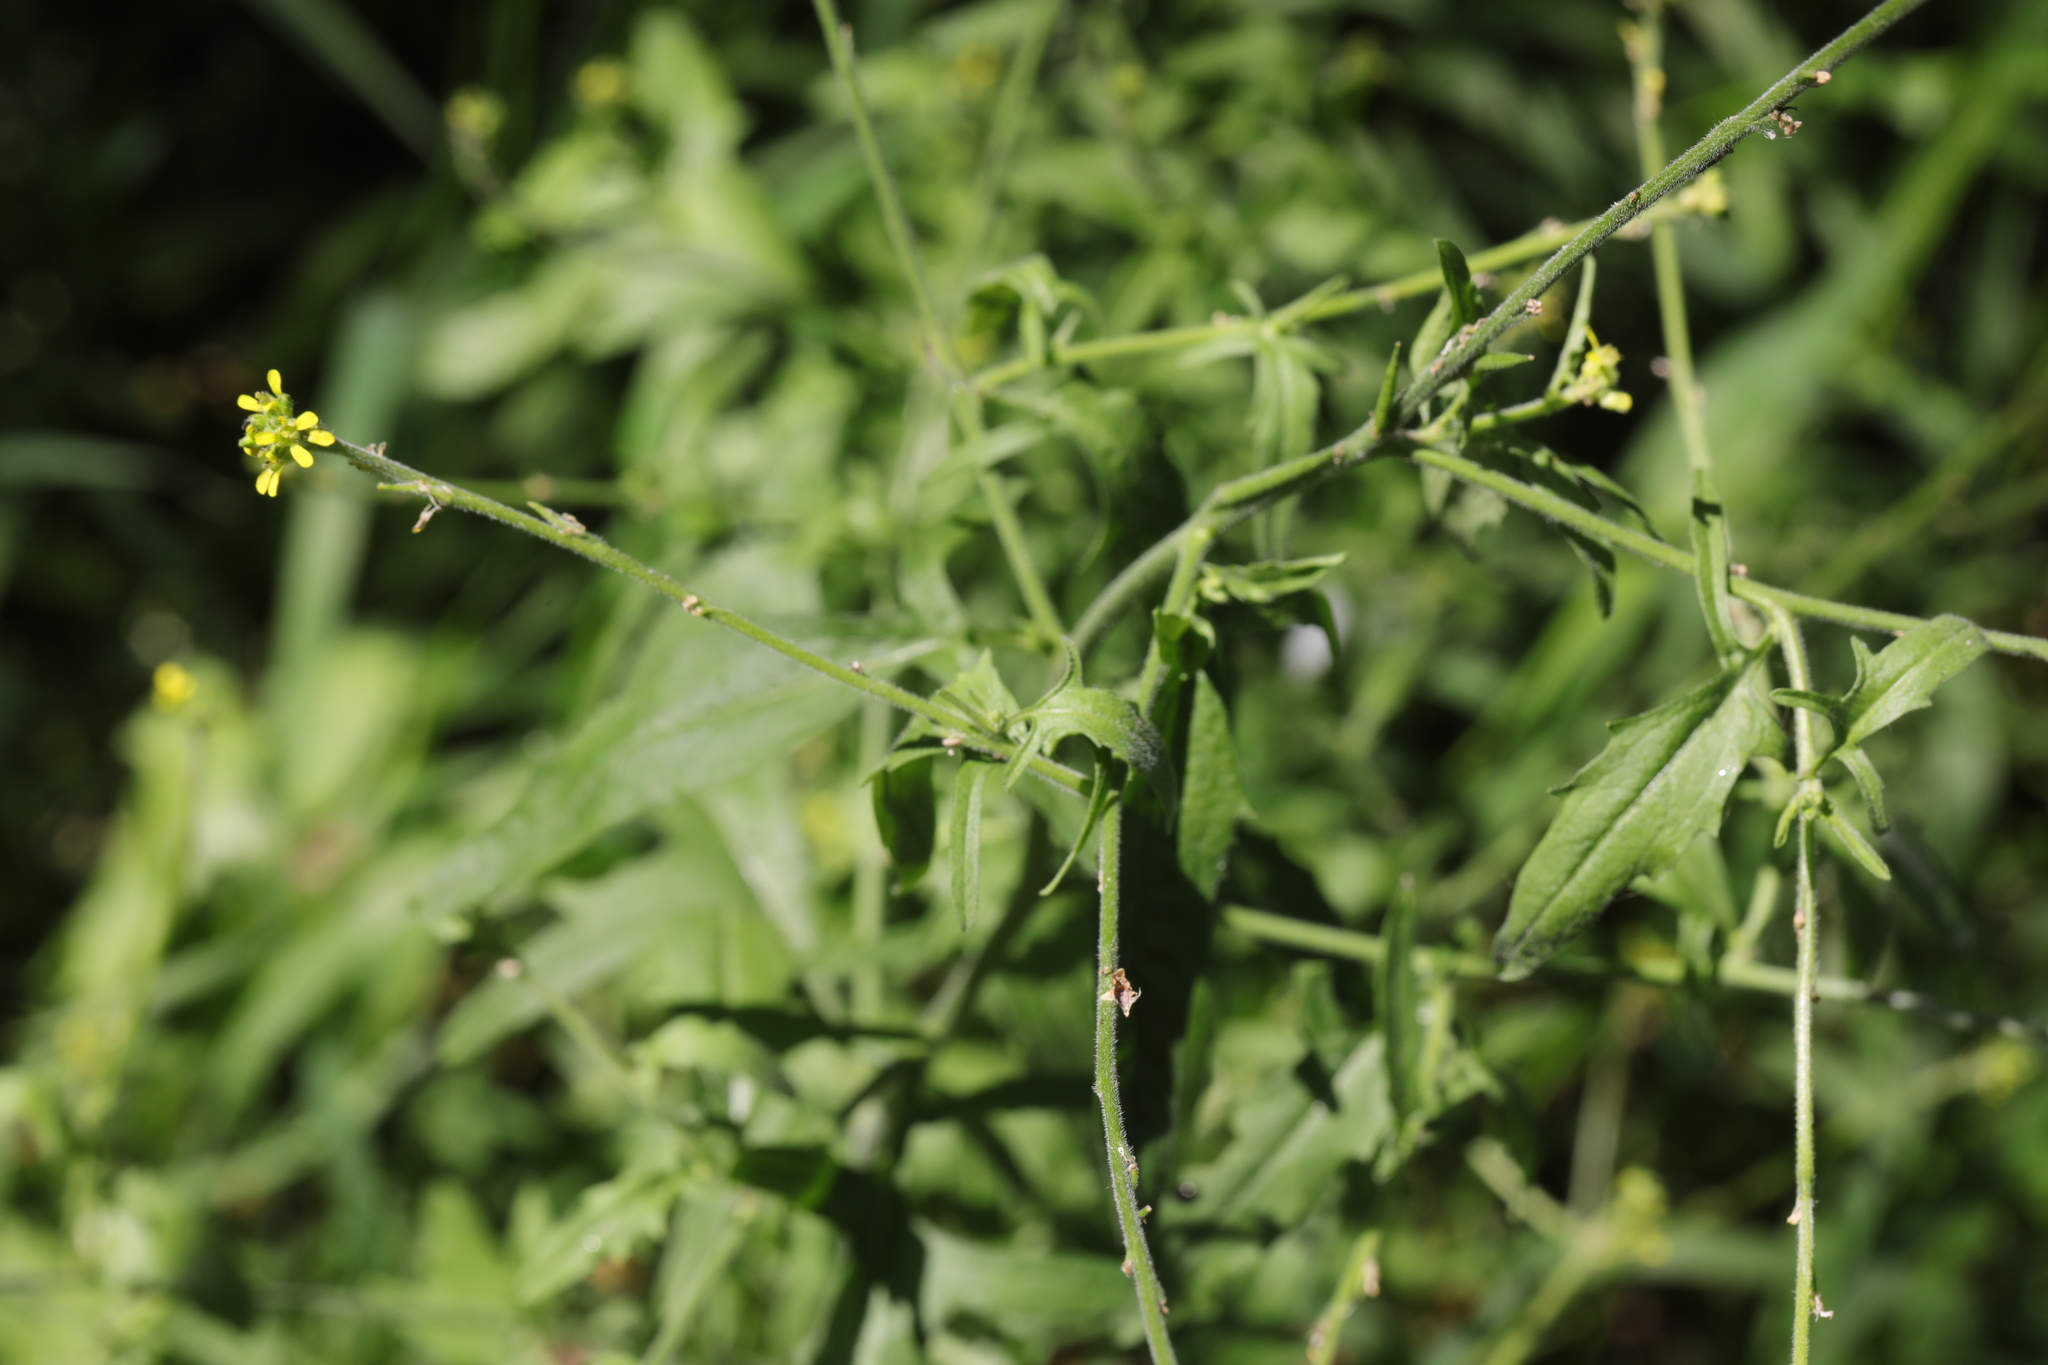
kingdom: Plantae
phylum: Tracheophyta
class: Magnoliopsida
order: Brassicales
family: Brassicaceae
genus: Sisymbrium
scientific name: Sisymbrium officinale
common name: Hedge mustard
